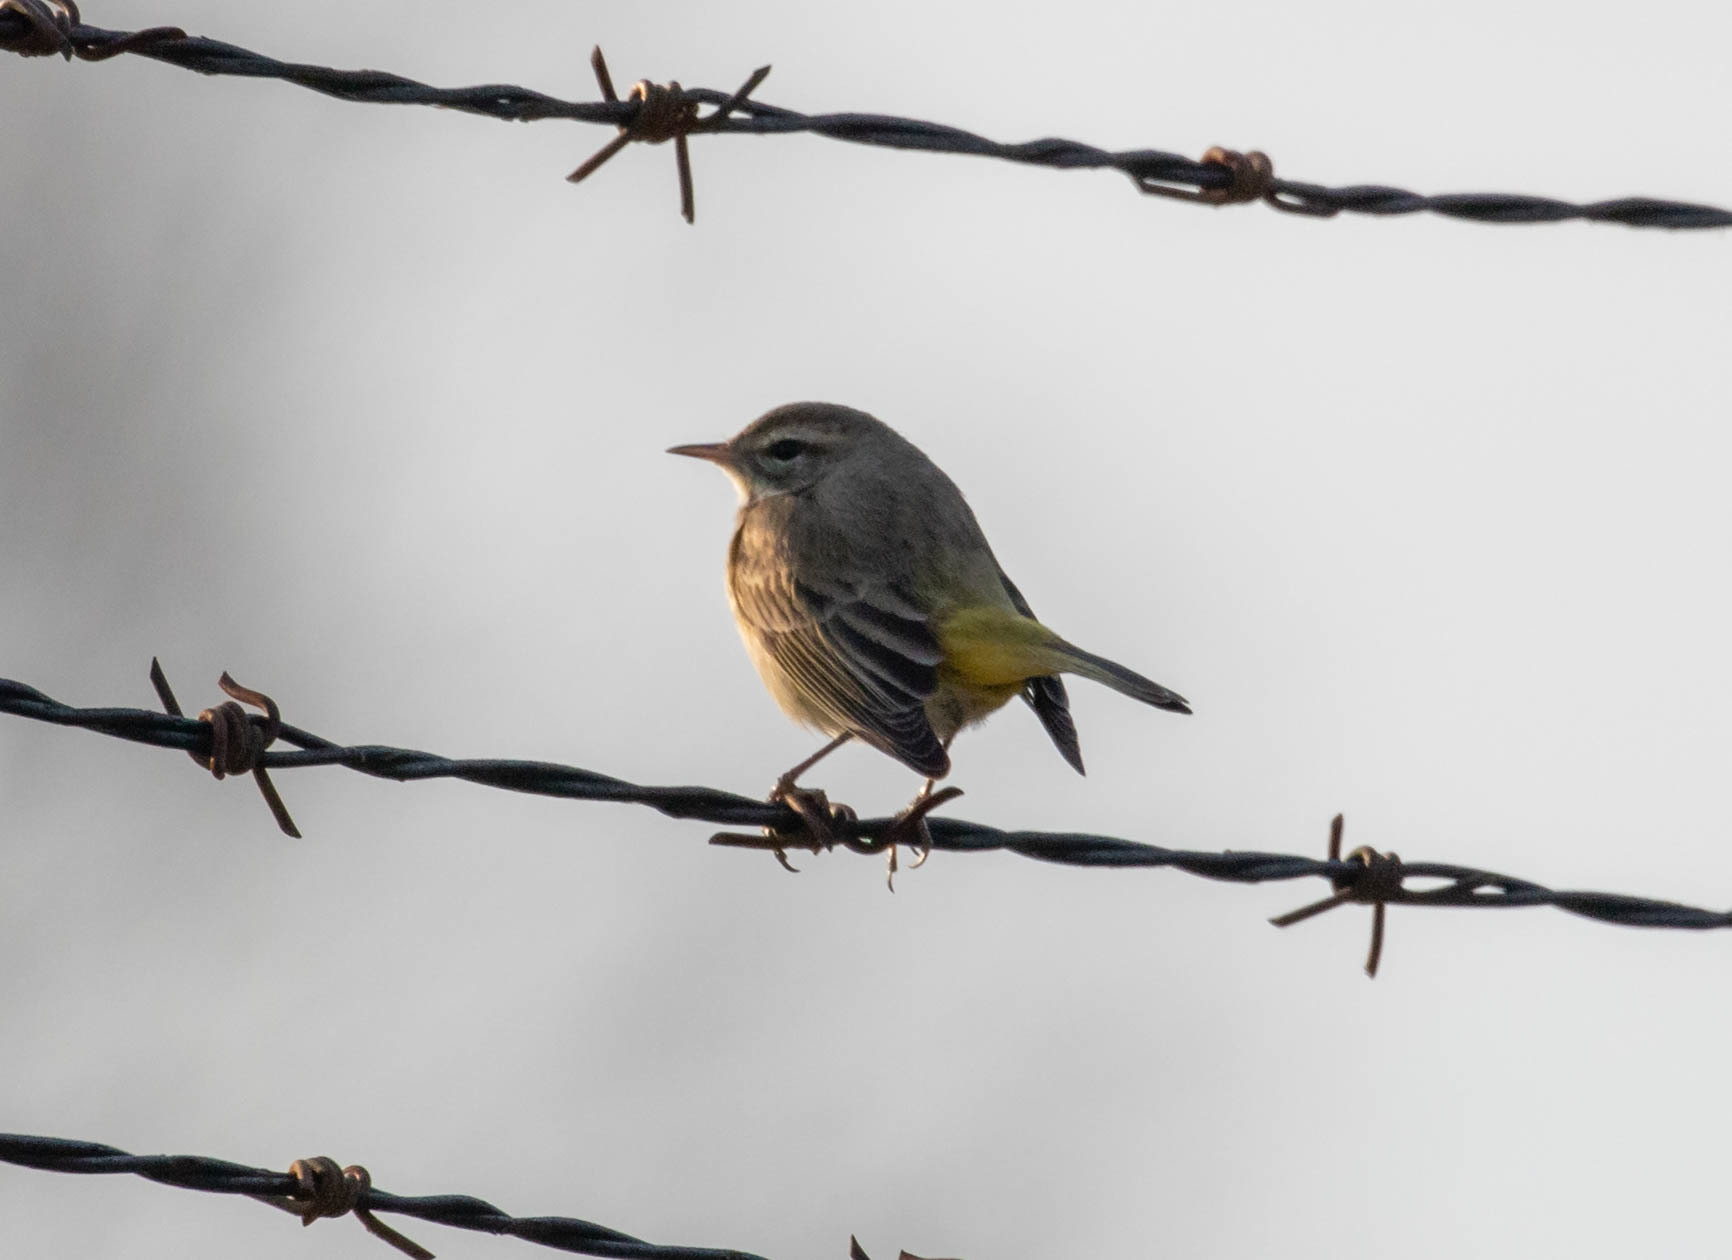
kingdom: Animalia
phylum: Chordata
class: Aves
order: Passeriformes
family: Parulidae
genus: Setophaga
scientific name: Setophaga palmarum
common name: Palm warbler
